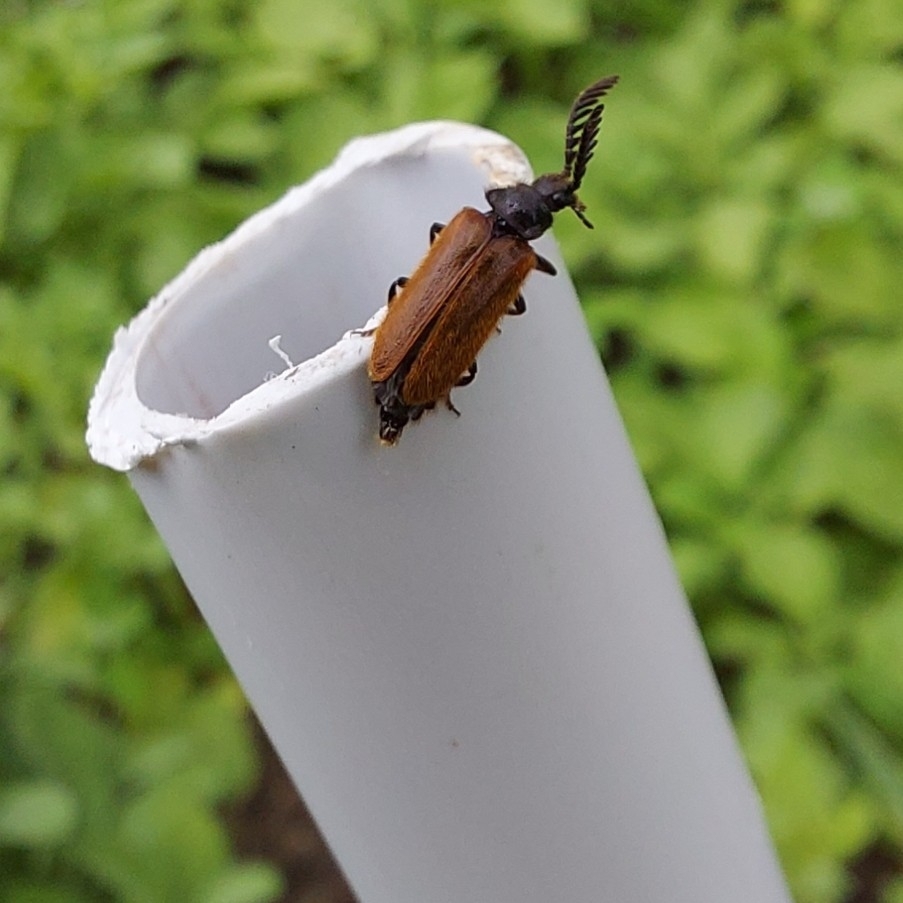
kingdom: Animalia
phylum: Arthropoda
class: Insecta
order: Coleoptera
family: Drilidae
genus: Drilus
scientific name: Drilus flavescens
